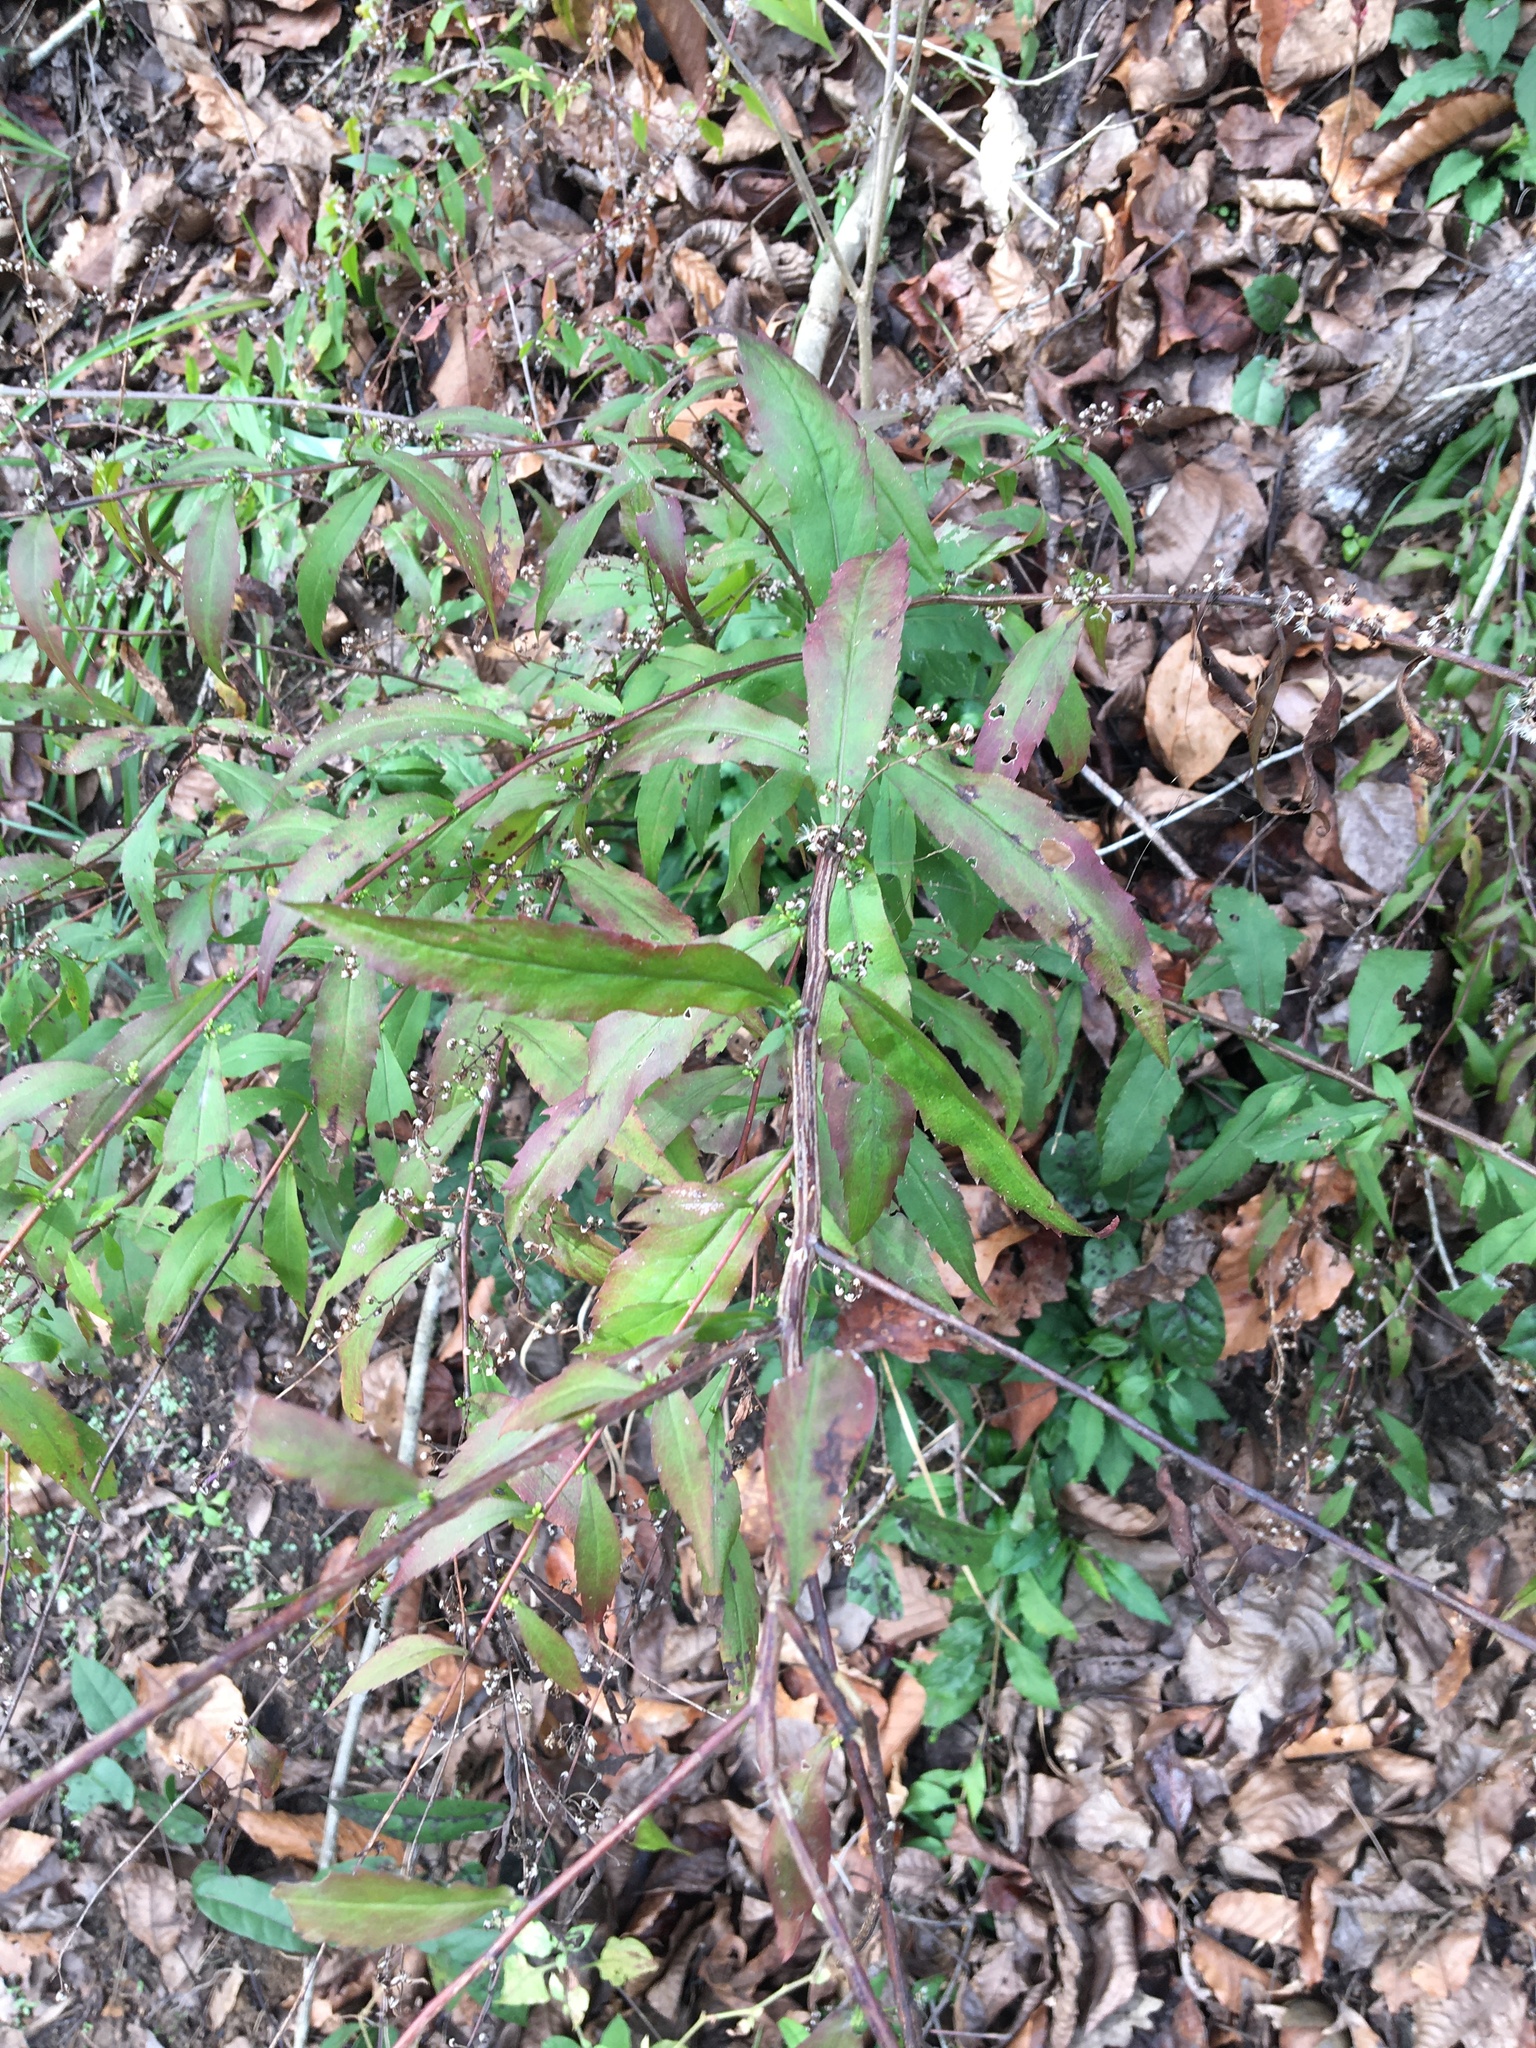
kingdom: Plantae
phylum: Tracheophyta
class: Magnoliopsida
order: Asterales
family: Asteraceae
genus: Solidago
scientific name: Solidago caesia
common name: Woodland goldenrod
